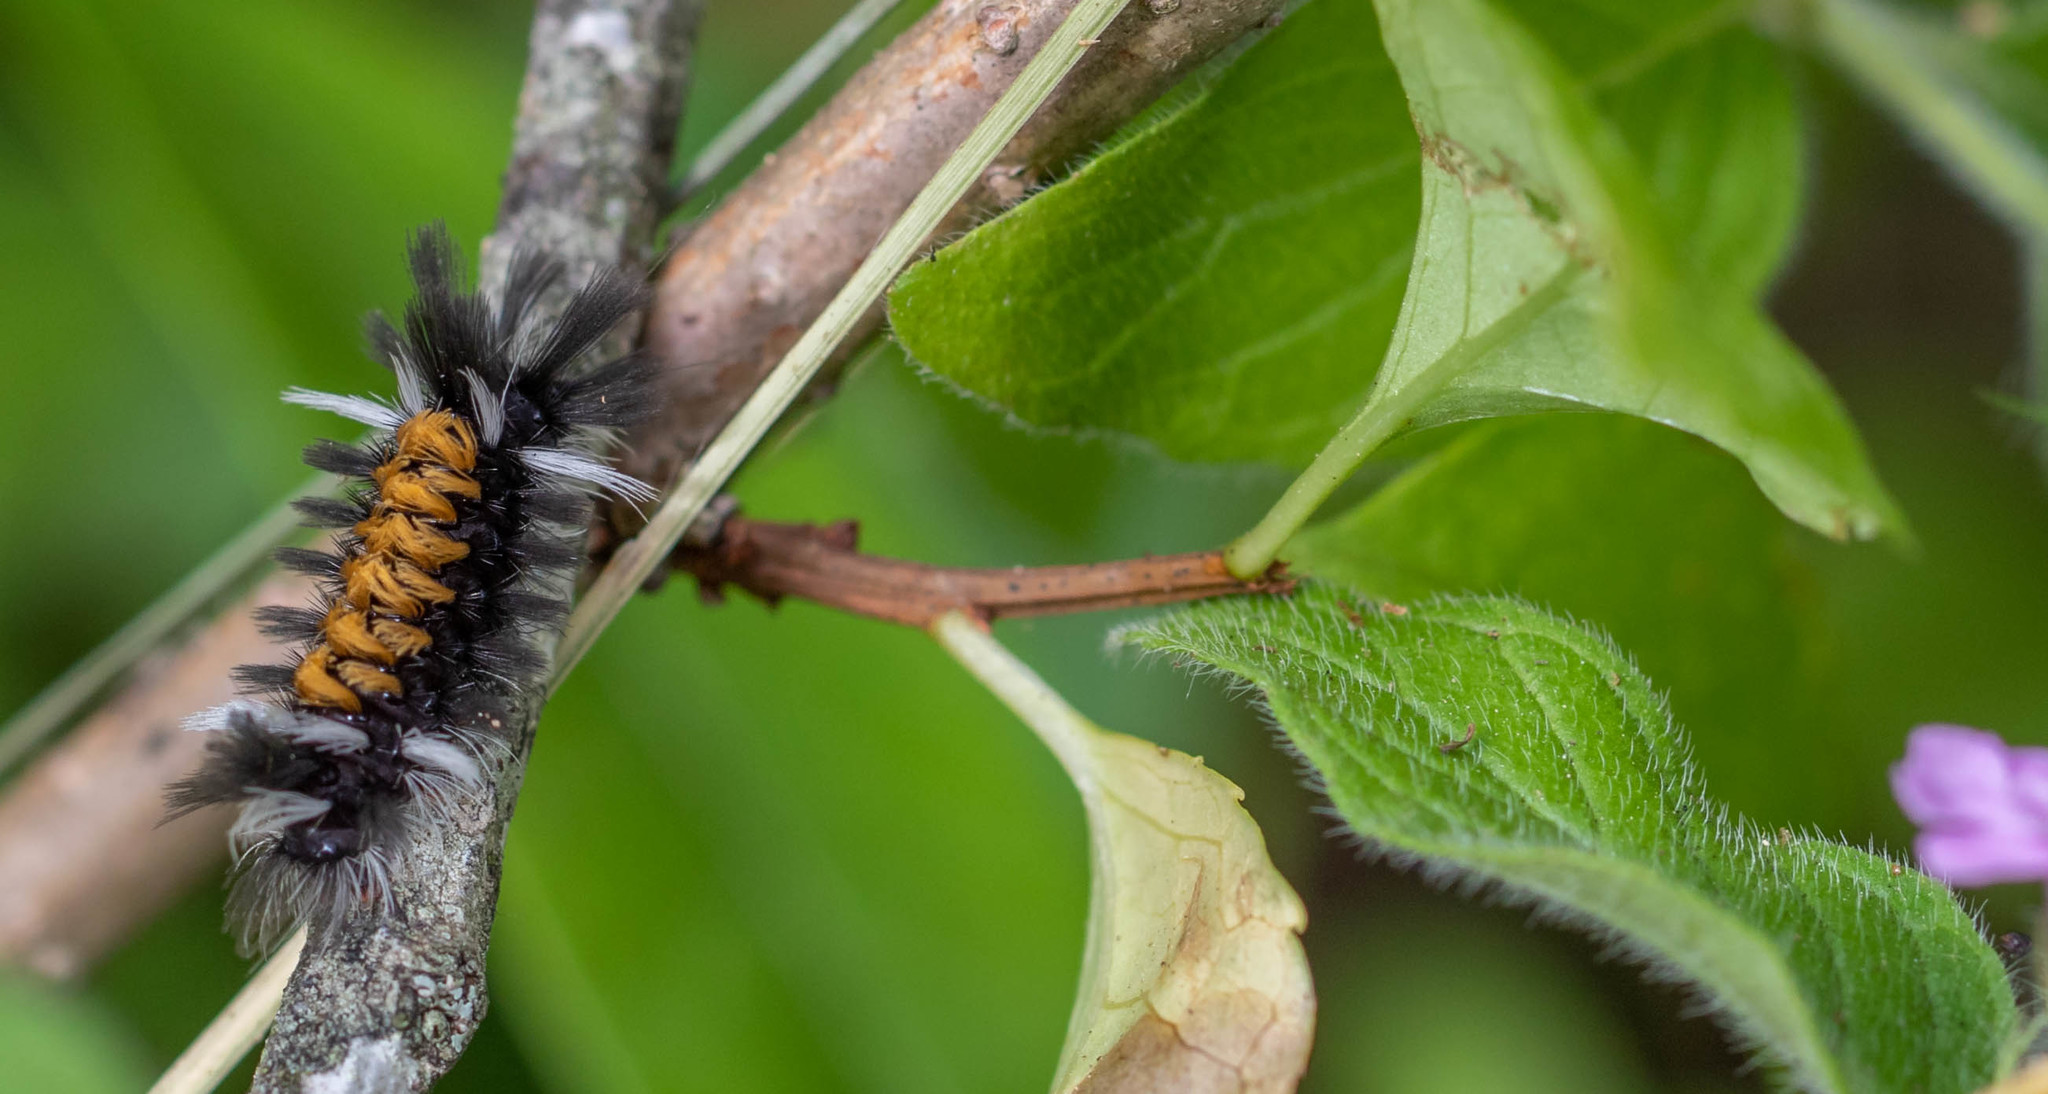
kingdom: Animalia
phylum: Arthropoda
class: Insecta
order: Lepidoptera
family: Erebidae
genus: Euchaetes
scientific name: Euchaetes egle
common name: Milkweed tussock moth
